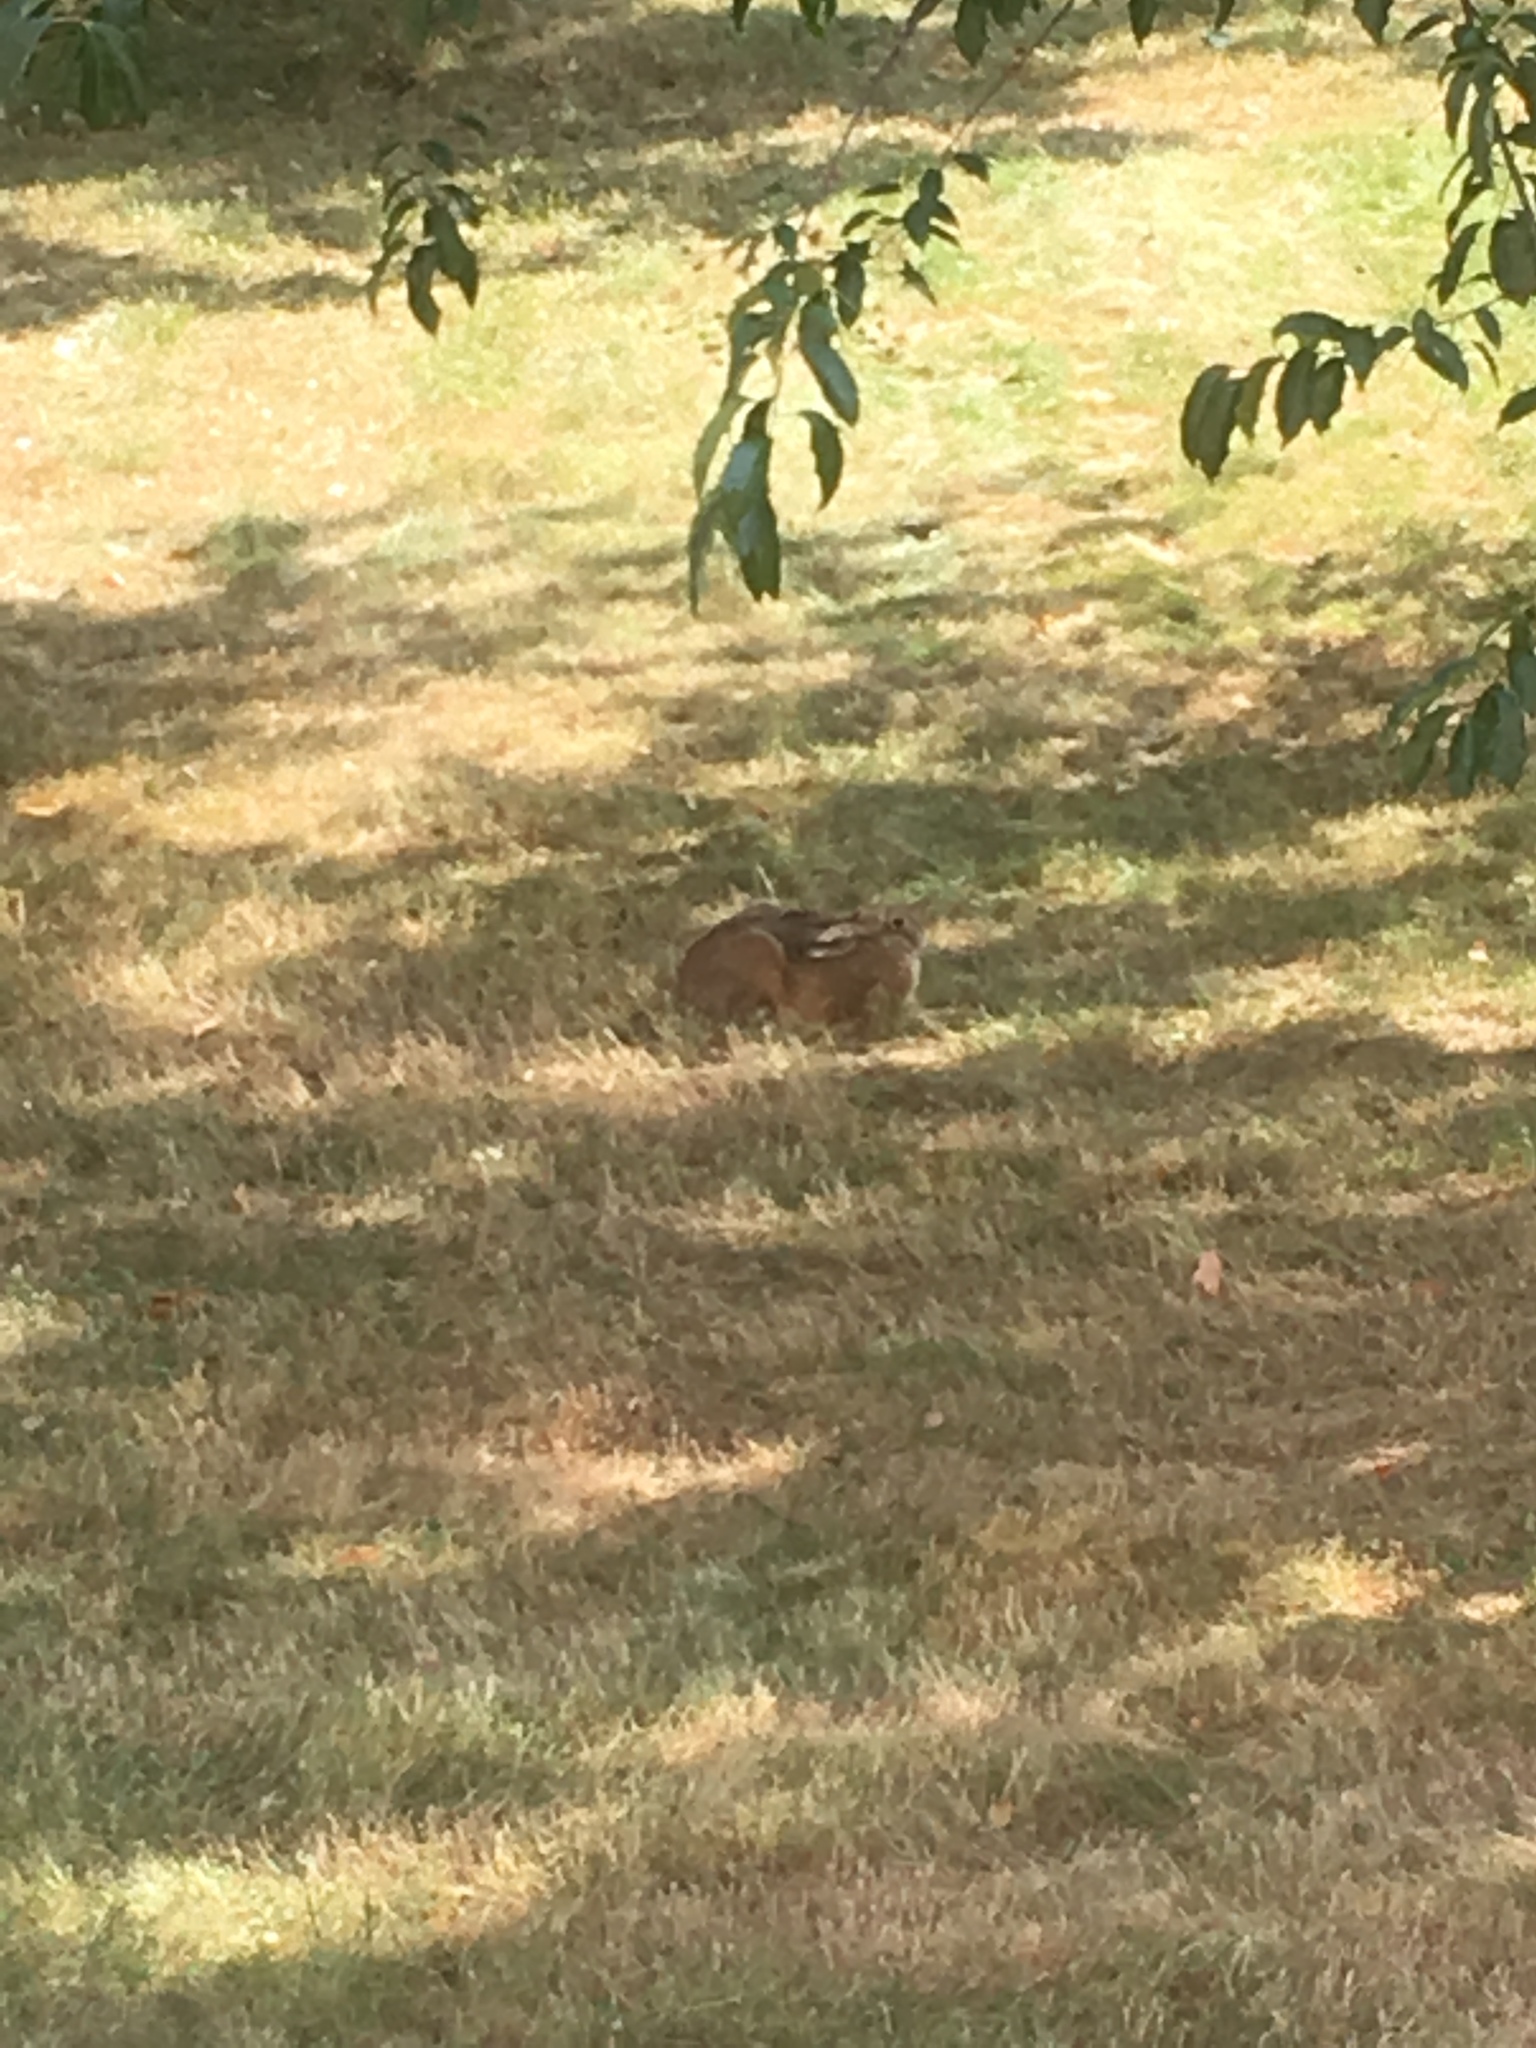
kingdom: Animalia
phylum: Chordata
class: Mammalia
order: Lagomorpha
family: Leporidae
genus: Lepus
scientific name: Lepus europaeus
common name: European hare
